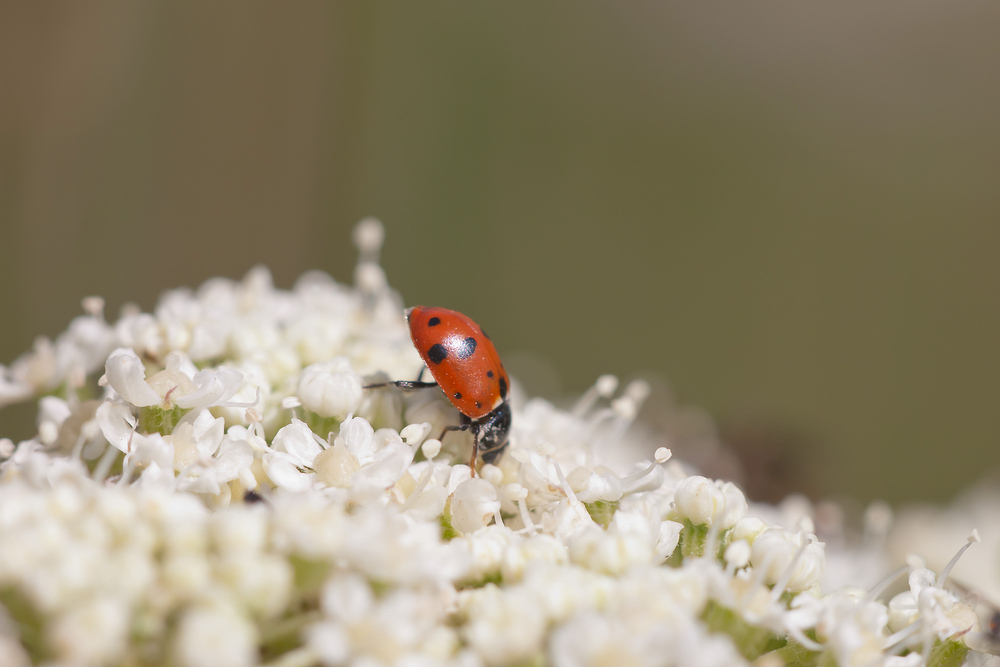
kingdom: Animalia
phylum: Arthropoda
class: Insecta
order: Coleoptera
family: Coccinellidae
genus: Hippodamia
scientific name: Hippodamia variegata
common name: Ladybird beetle
